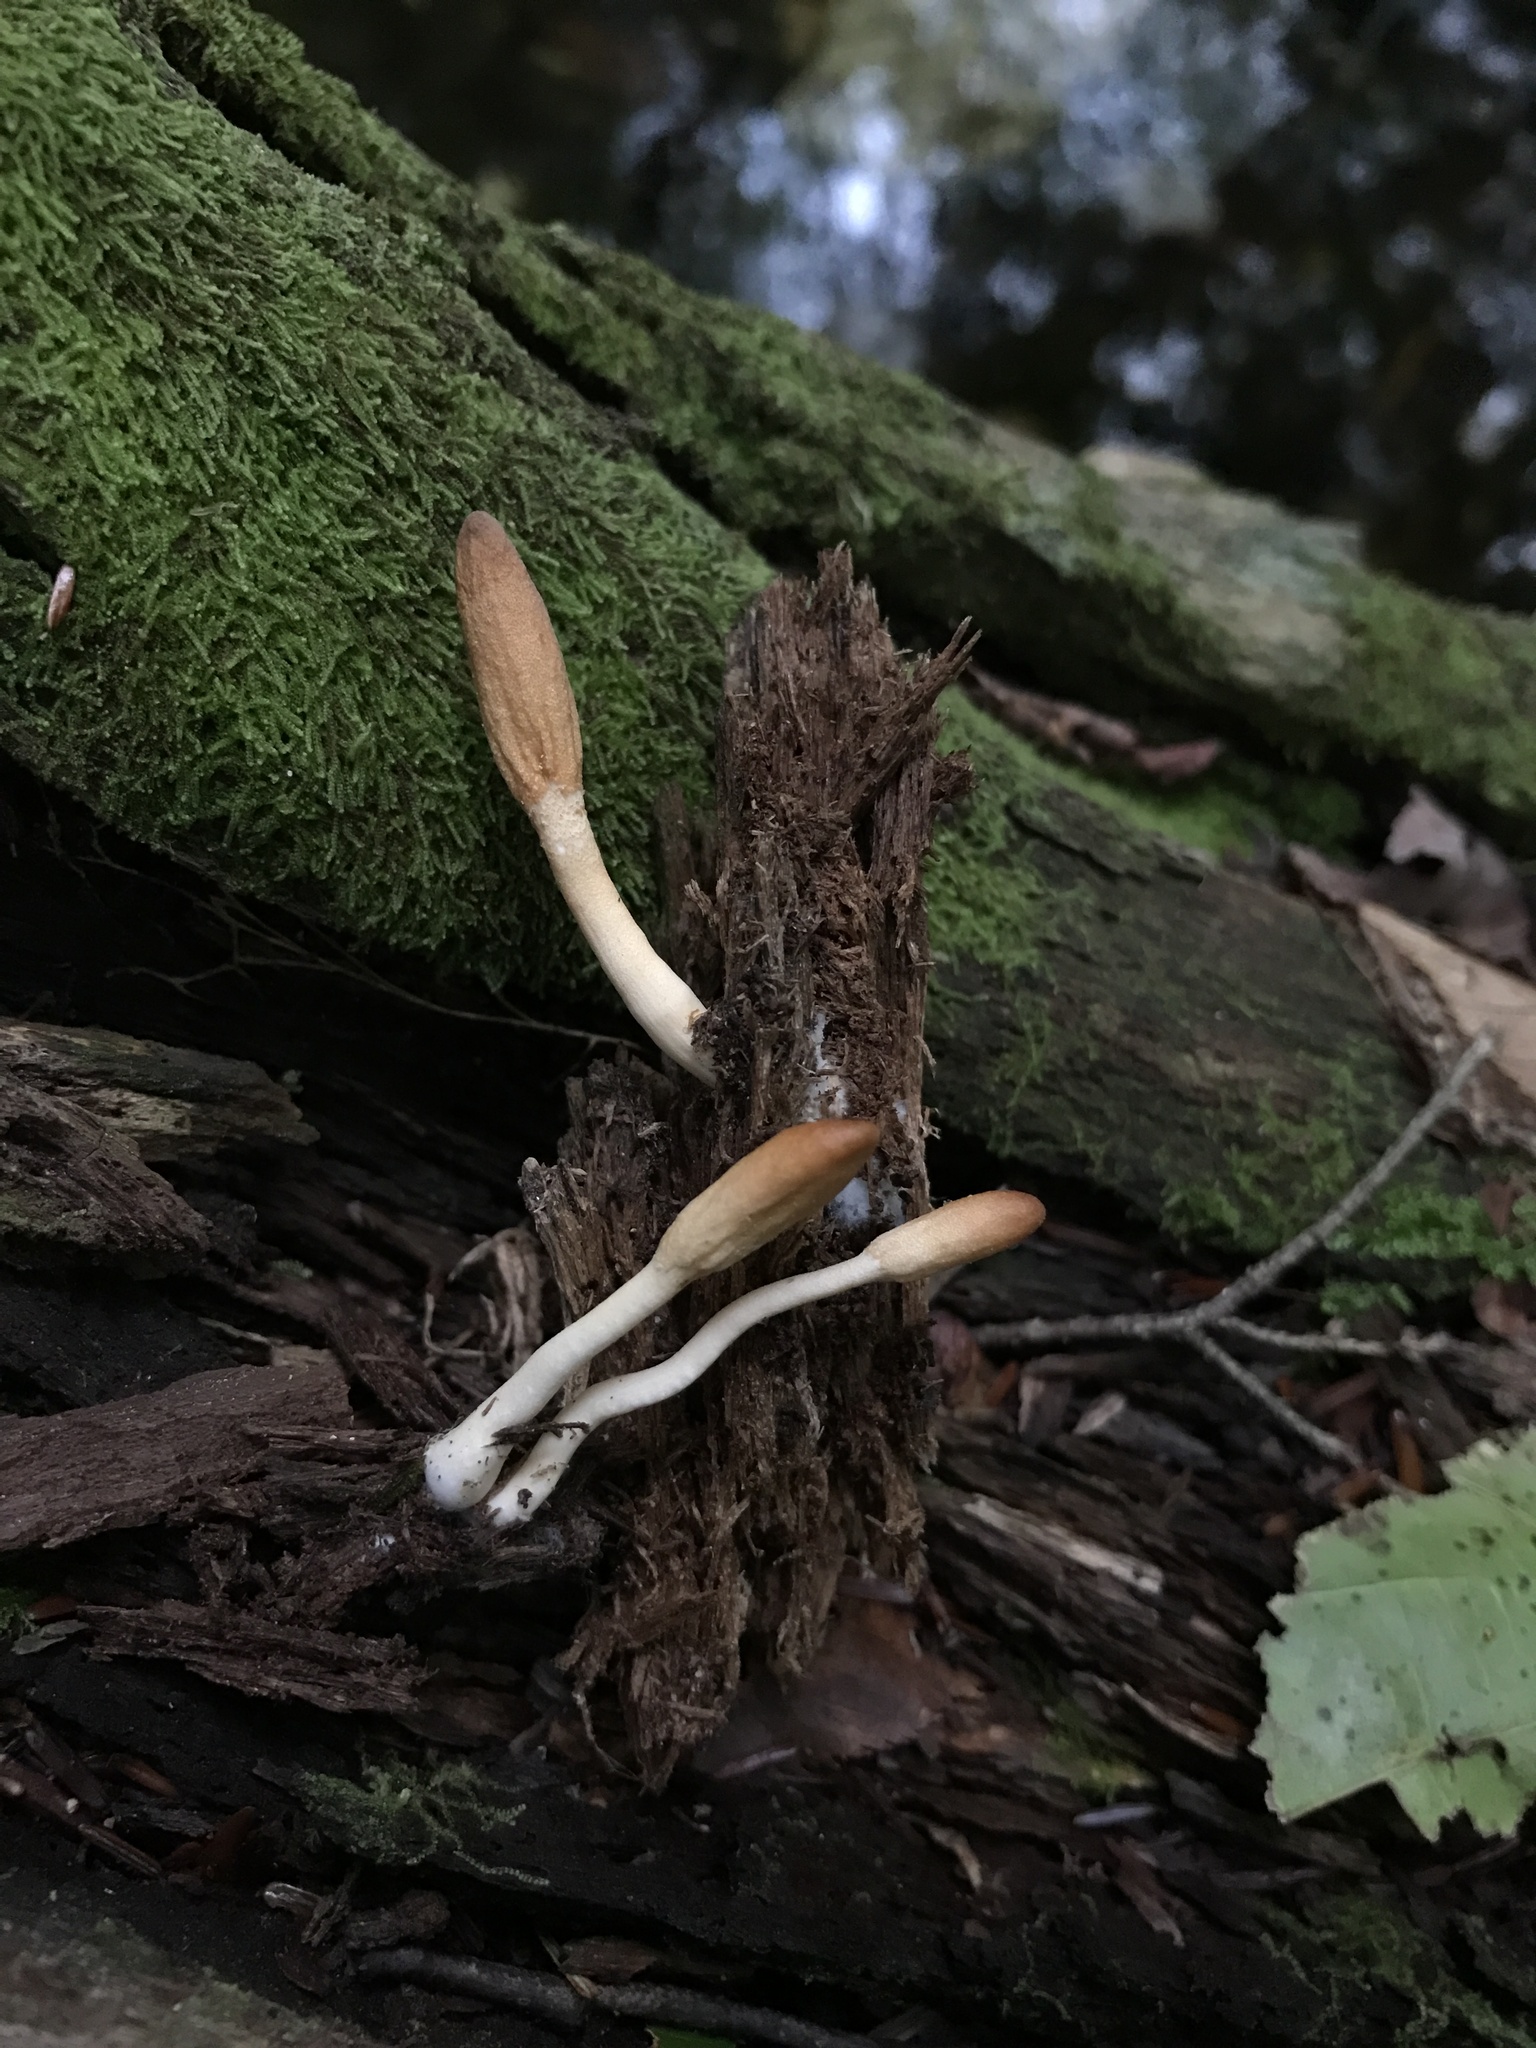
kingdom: Fungi
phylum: Ascomycota
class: Sordariomycetes
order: Hypocreales
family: Hypocreaceae
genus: Trichoderma
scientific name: Trichoderma alutaceum
